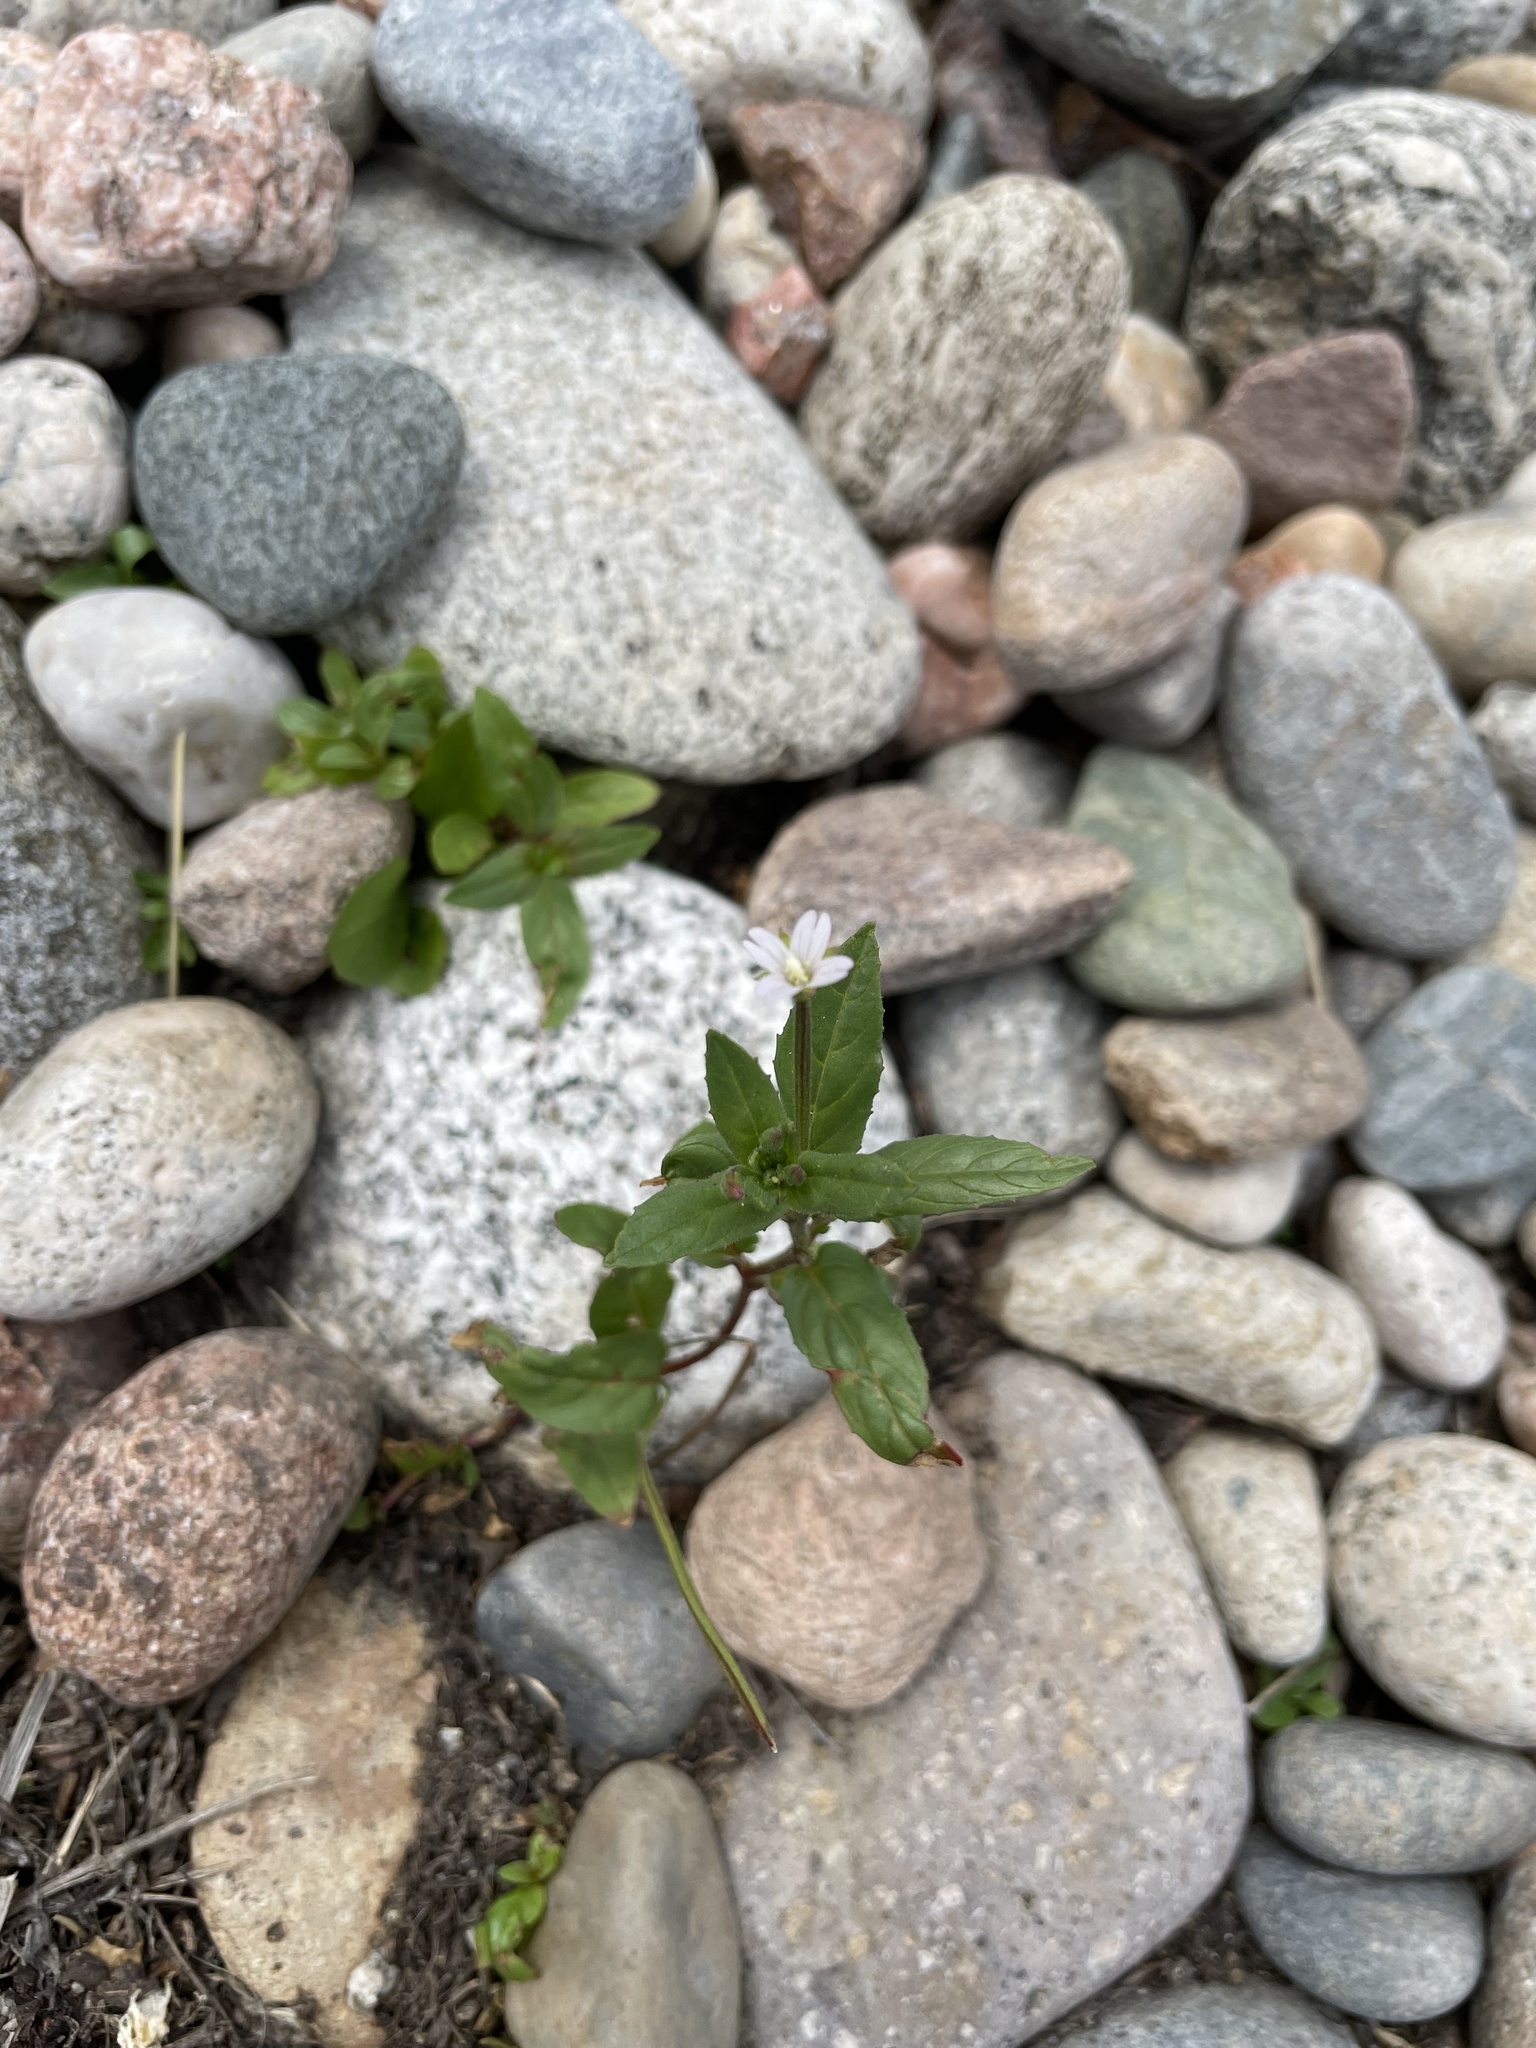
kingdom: Plantae
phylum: Tracheophyta
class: Magnoliopsida
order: Myrtales
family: Onagraceae
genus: Epilobium
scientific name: Epilobium ciliatum
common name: American willowherb
